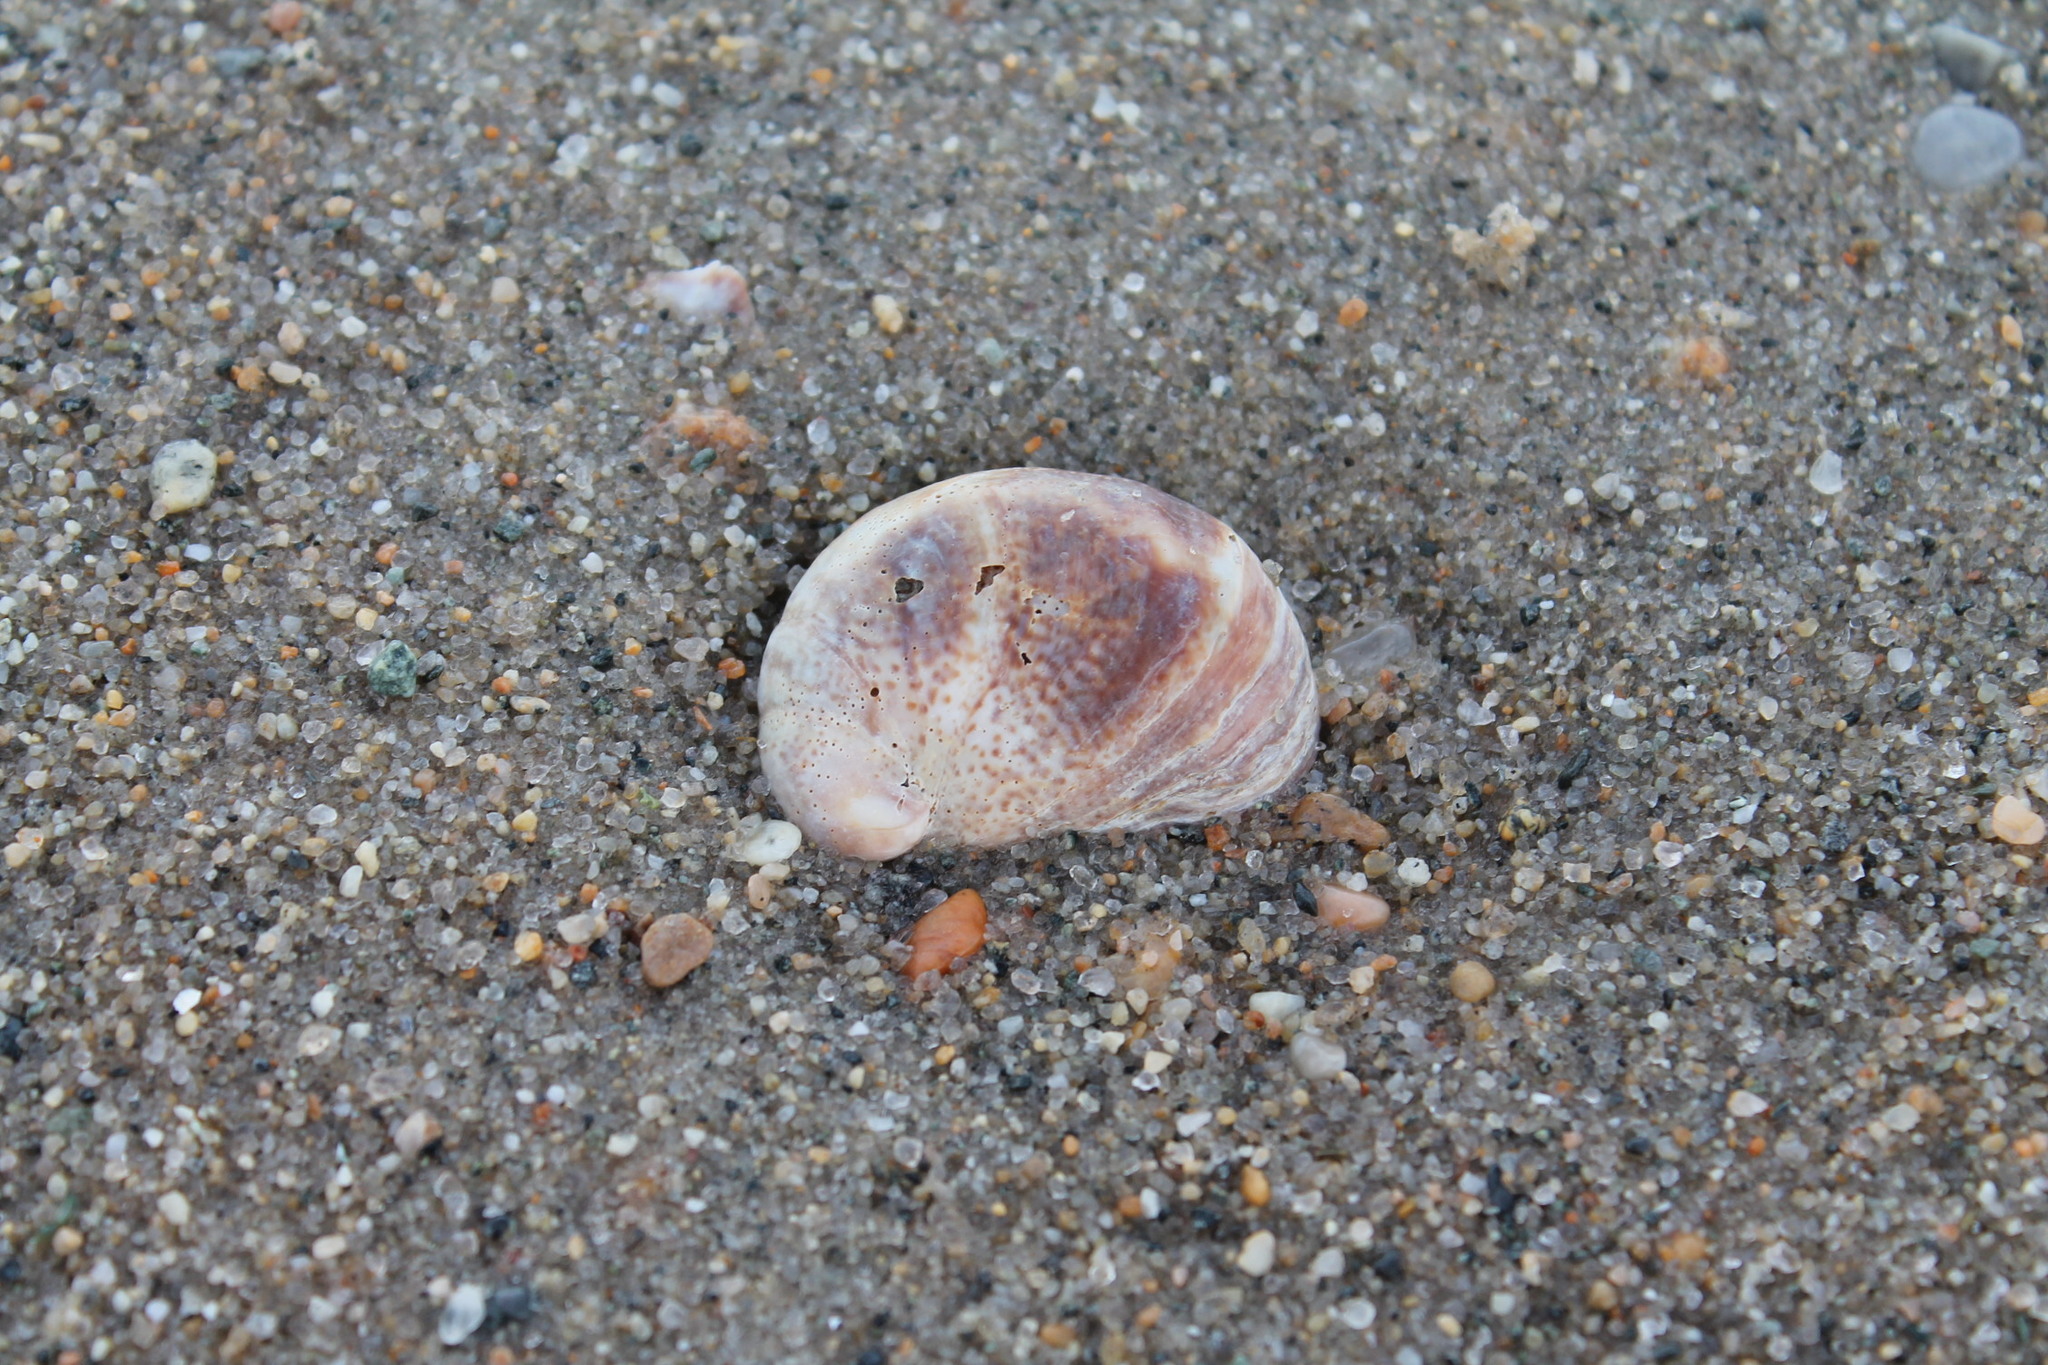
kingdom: Animalia
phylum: Mollusca
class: Gastropoda
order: Littorinimorpha
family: Calyptraeidae
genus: Crepidula
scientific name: Crepidula fornicata
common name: Slipper limpet
